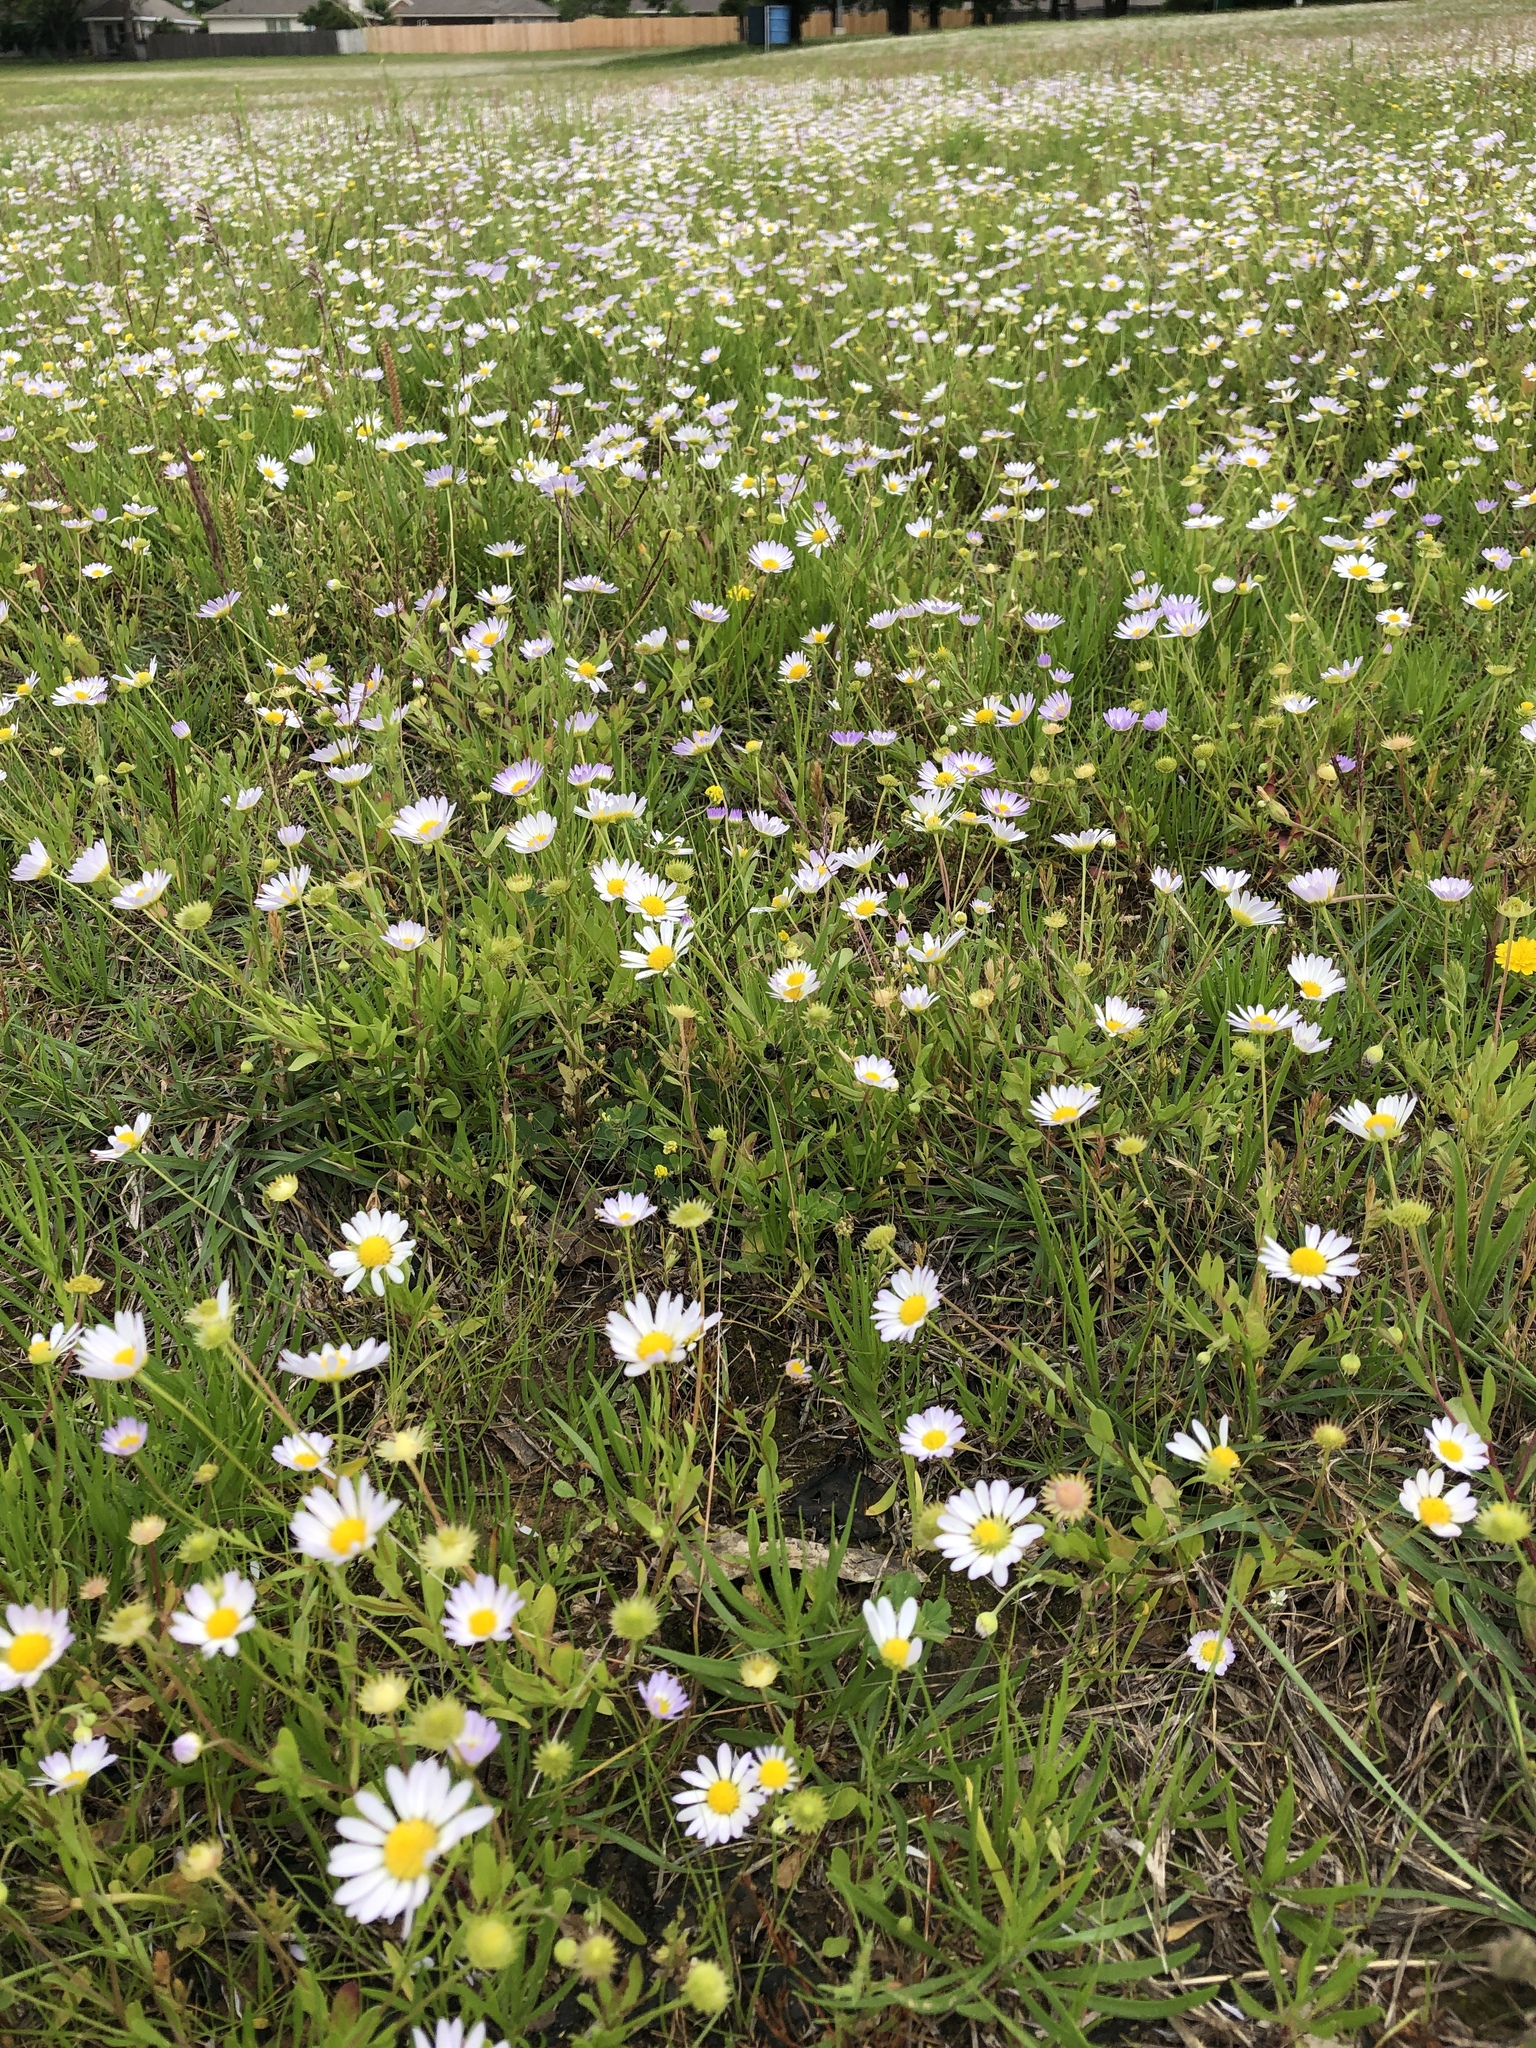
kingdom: Plantae
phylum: Tracheophyta
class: Magnoliopsida
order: Asterales
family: Asteraceae
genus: Astranthium
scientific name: Astranthium ciliatum
